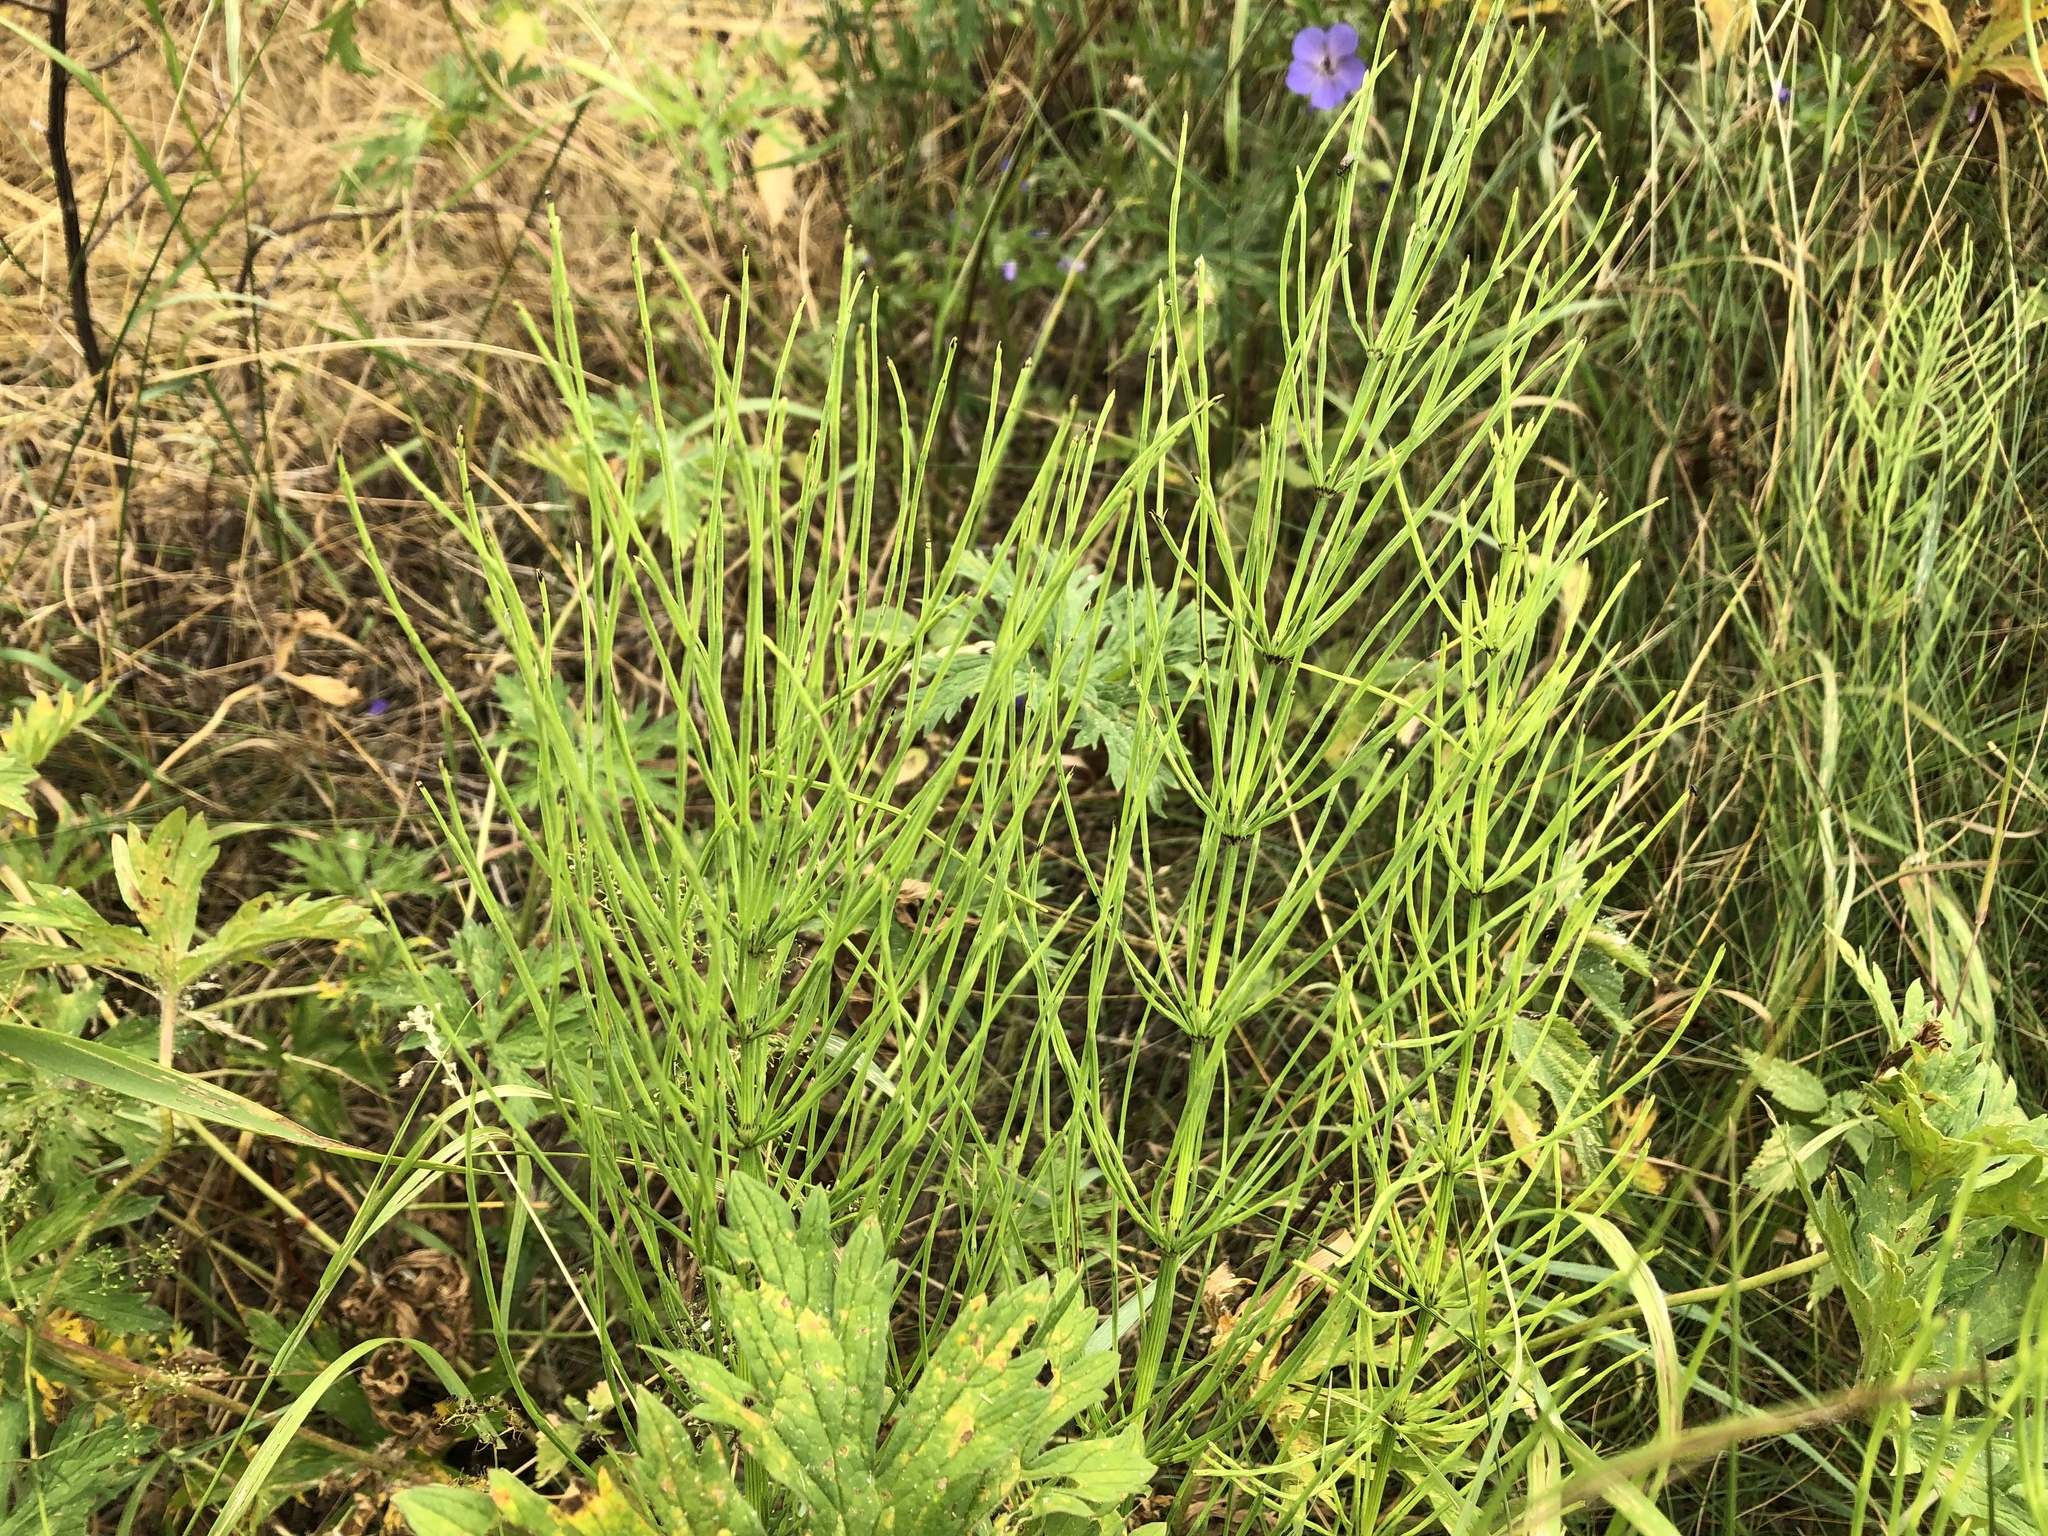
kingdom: Plantae
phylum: Tracheophyta
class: Polypodiopsida
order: Equisetales
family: Equisetaceae
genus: Equisetum
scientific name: Equisetum arvense
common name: Field horsetail
